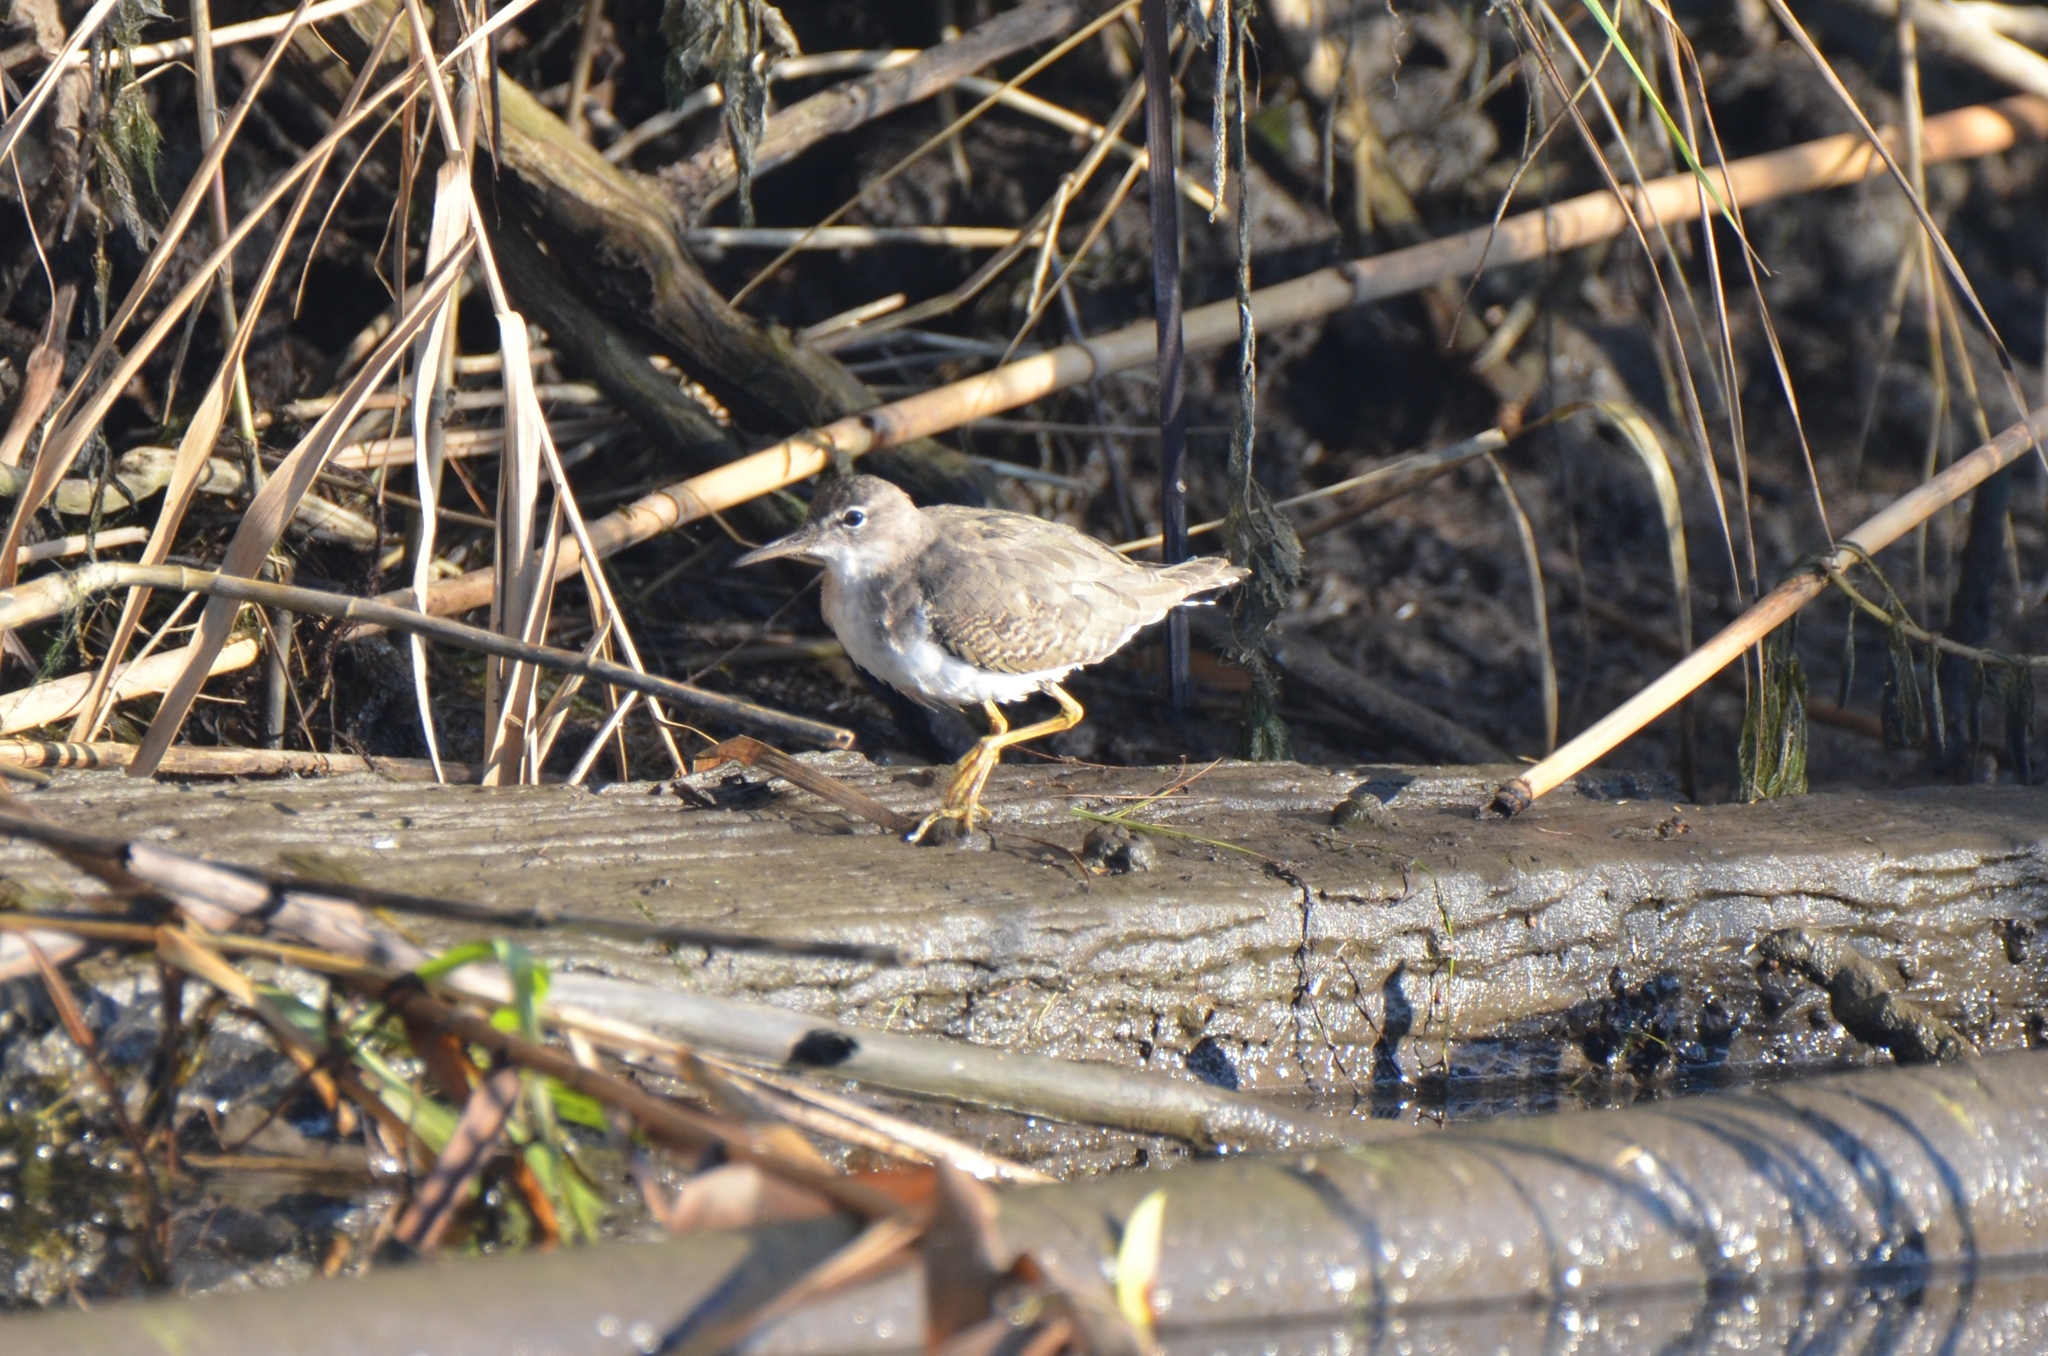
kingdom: Animalia
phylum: Chordata
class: Aves
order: Charadriiformes
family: Scolopacidae
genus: Actitis
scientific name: Actitis macularius
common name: Spotted sandpiper
